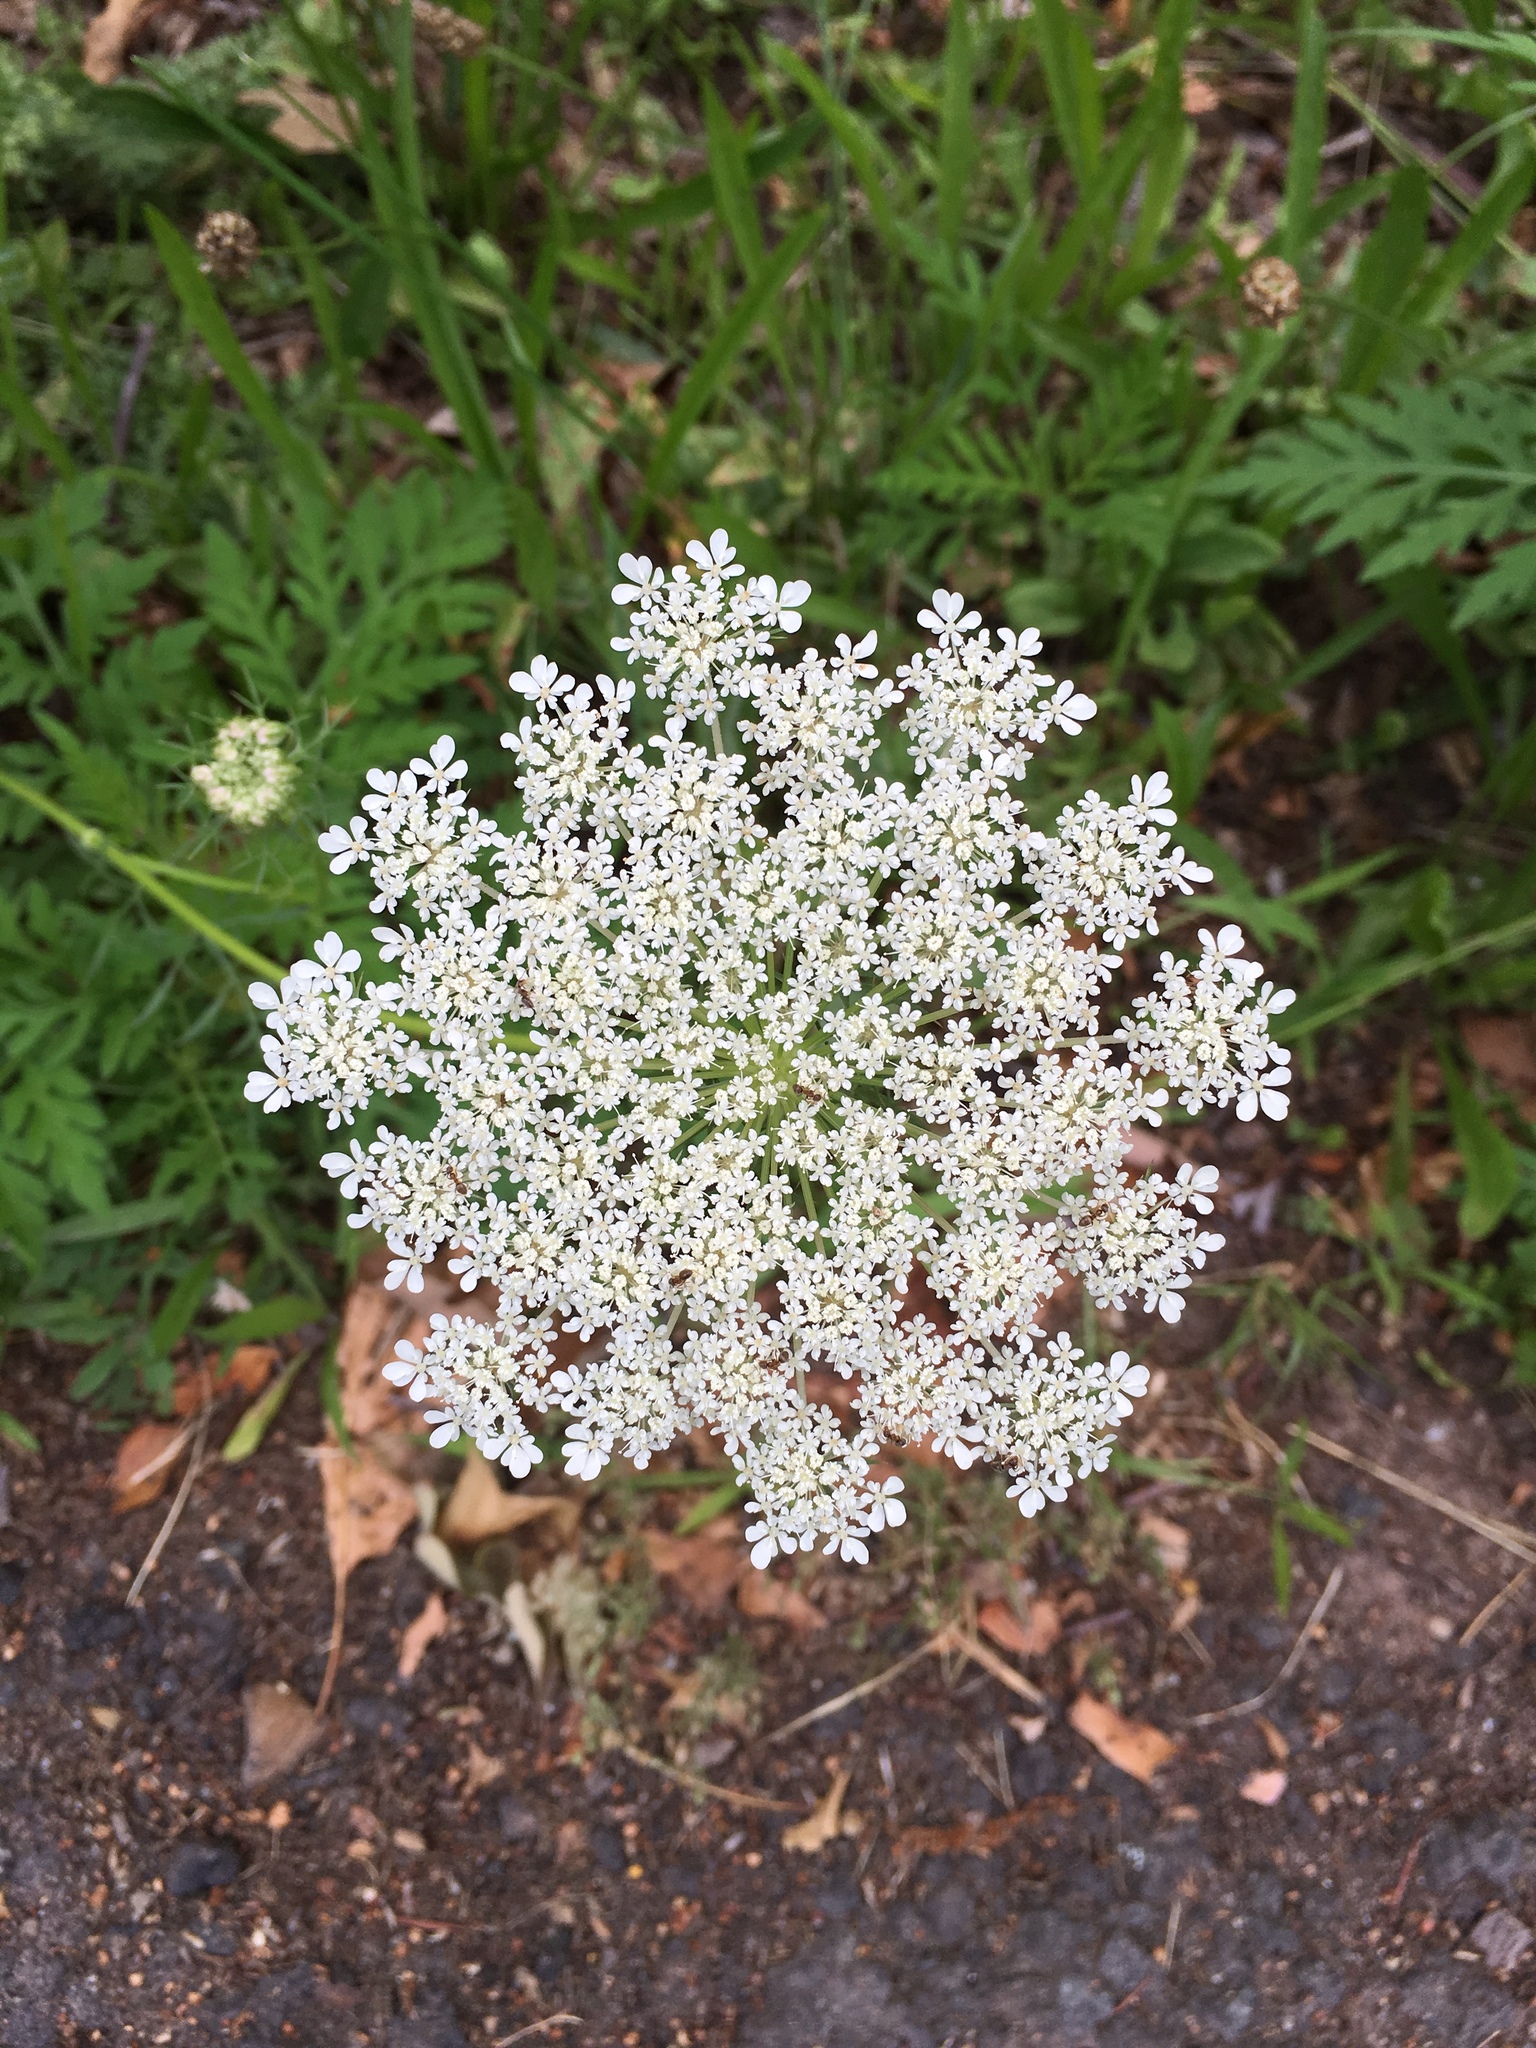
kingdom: Plantae
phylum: Tracheophyta
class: Magnoliopsida
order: Apiales
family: Apiaceae
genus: Daucus
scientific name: Daucus carota
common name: Wild carrot
